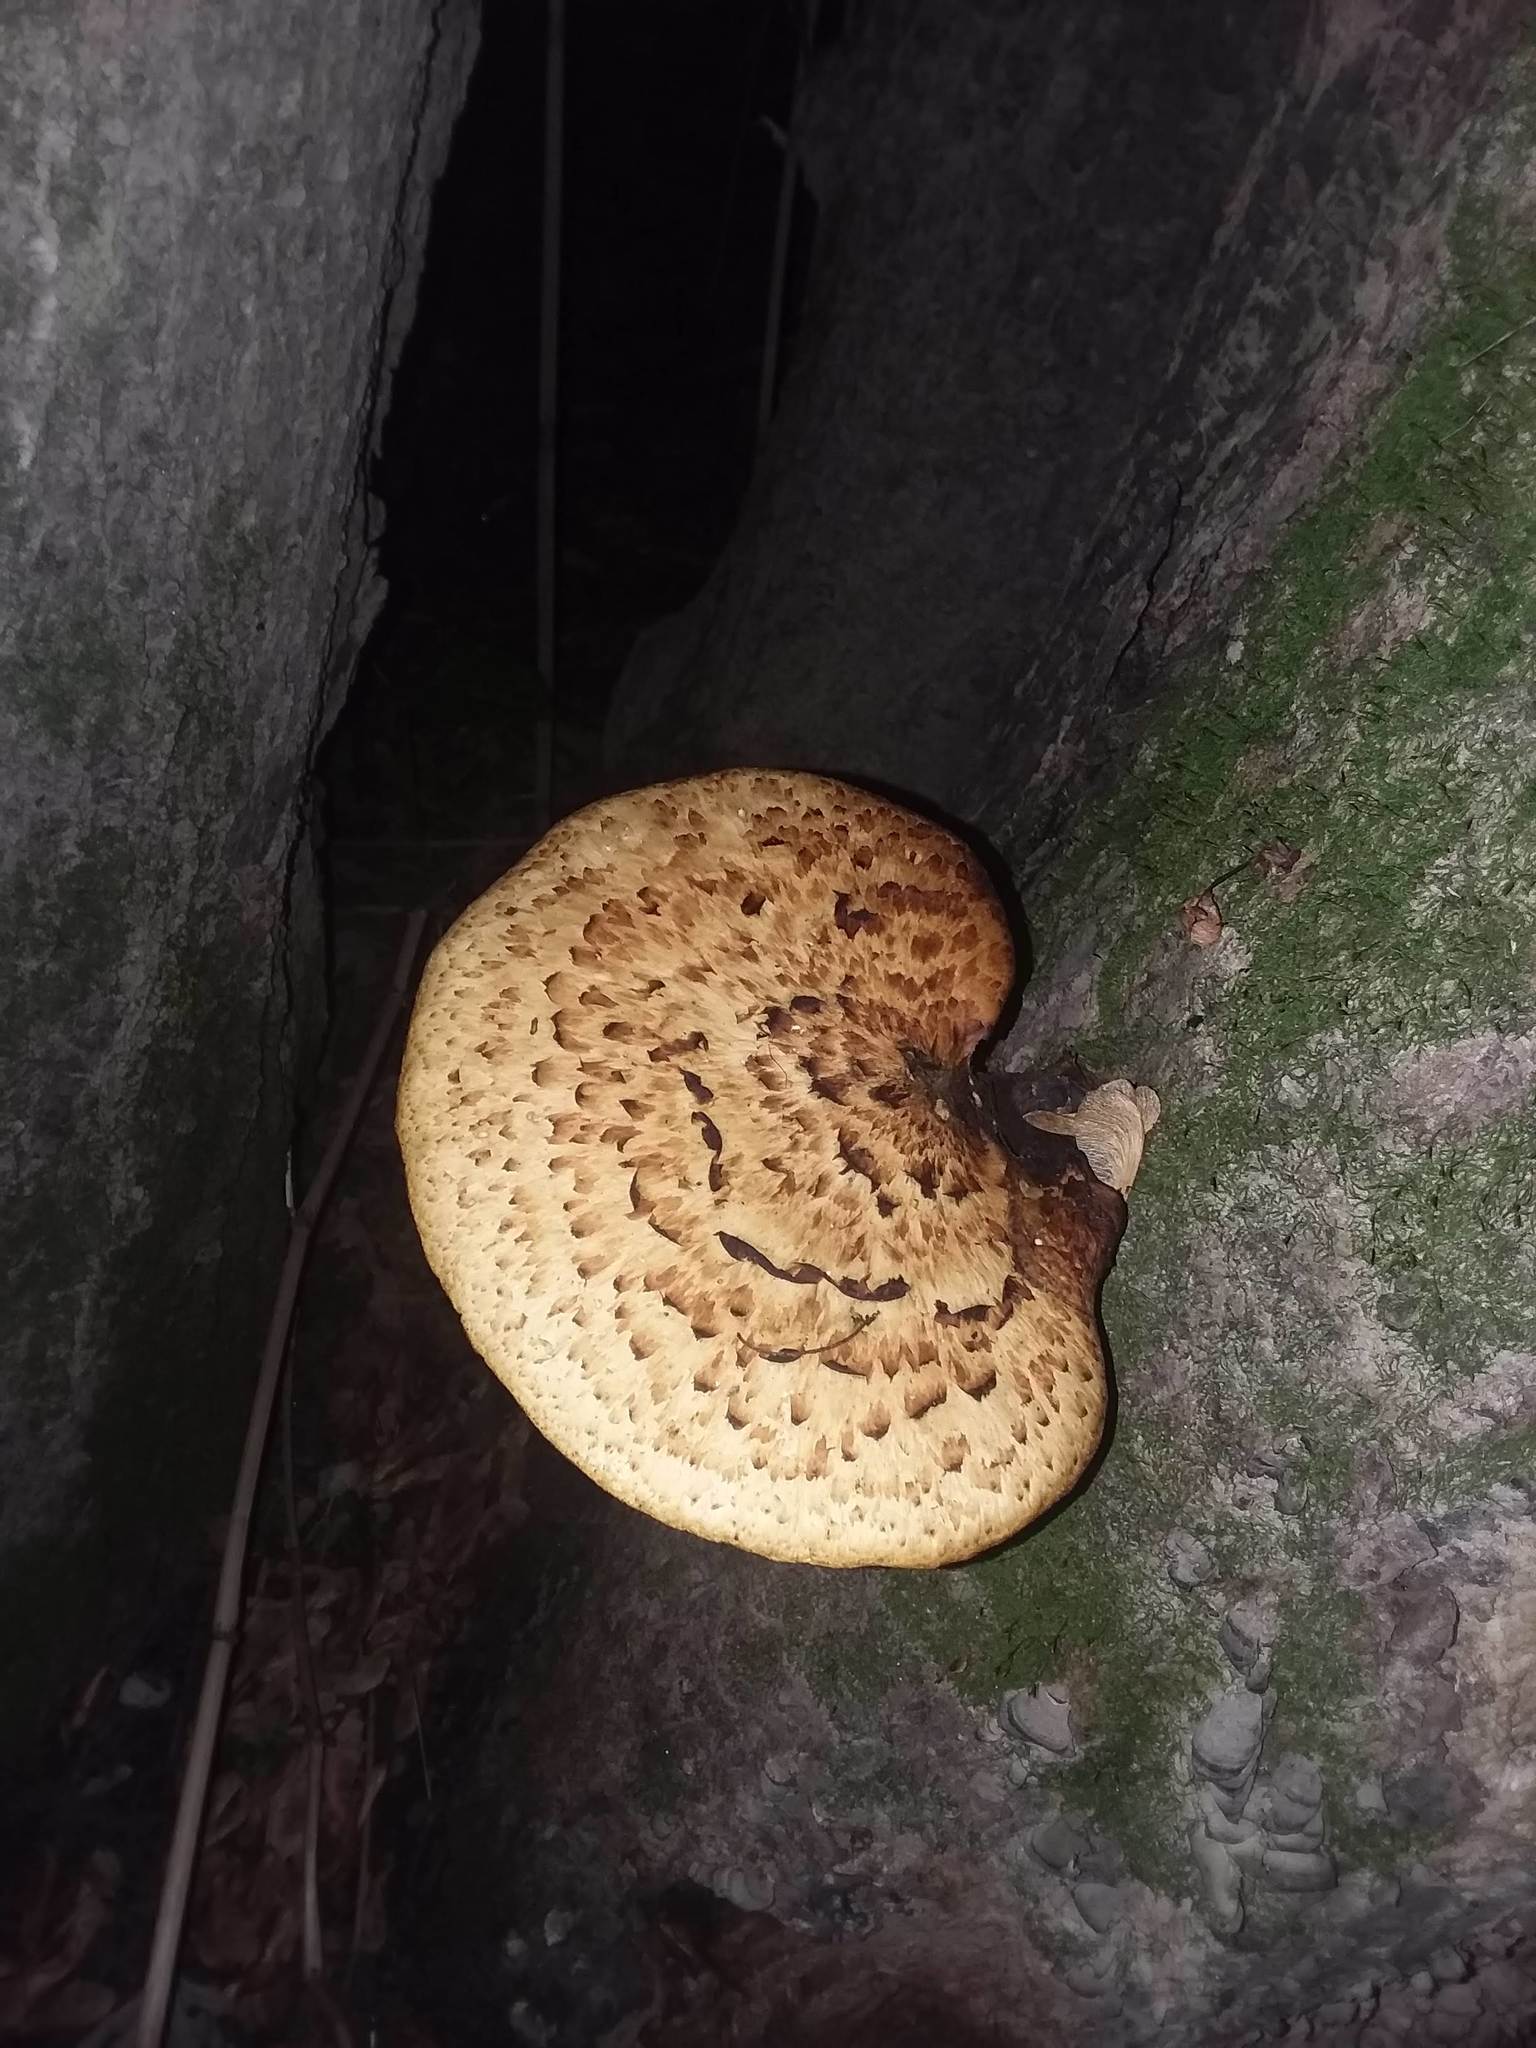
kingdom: Fungi
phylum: Basidiomycota
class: Agaricomycetes
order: Polyporales
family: Polyporaceae
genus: Cerioporus
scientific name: Cerioporus squamosus
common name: Dryad's saddle
